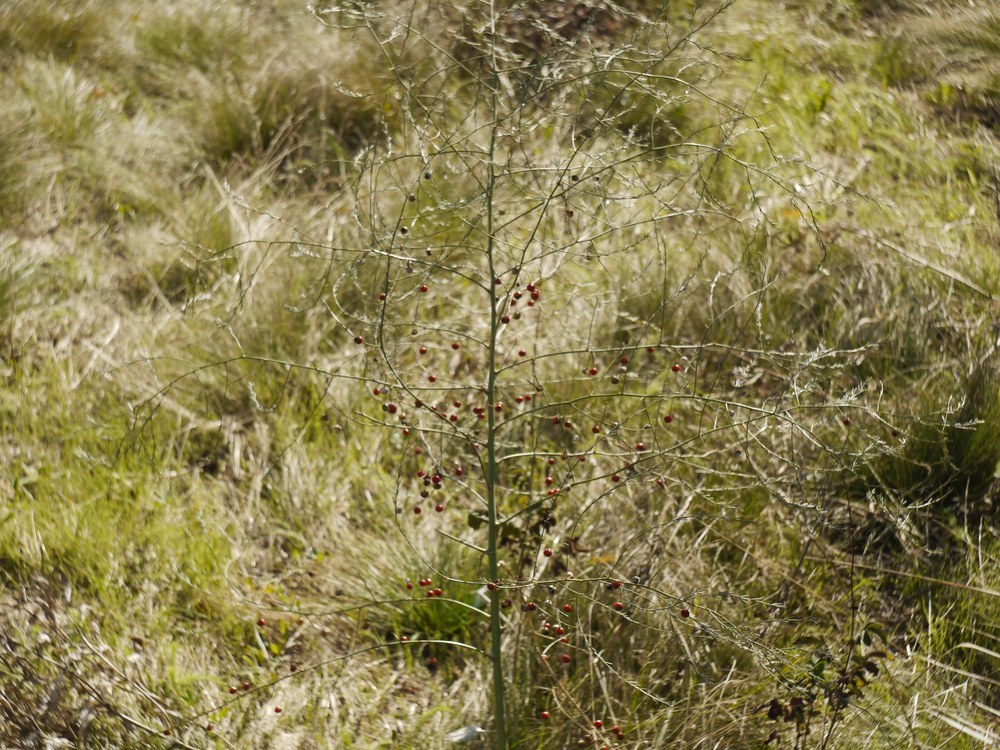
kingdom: Plantae
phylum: Tracheophyta
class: Liliopsida
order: Asparagales
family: Asparagaceae
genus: Asparagus
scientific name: Asparagus officinalis
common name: Garden asparagus
